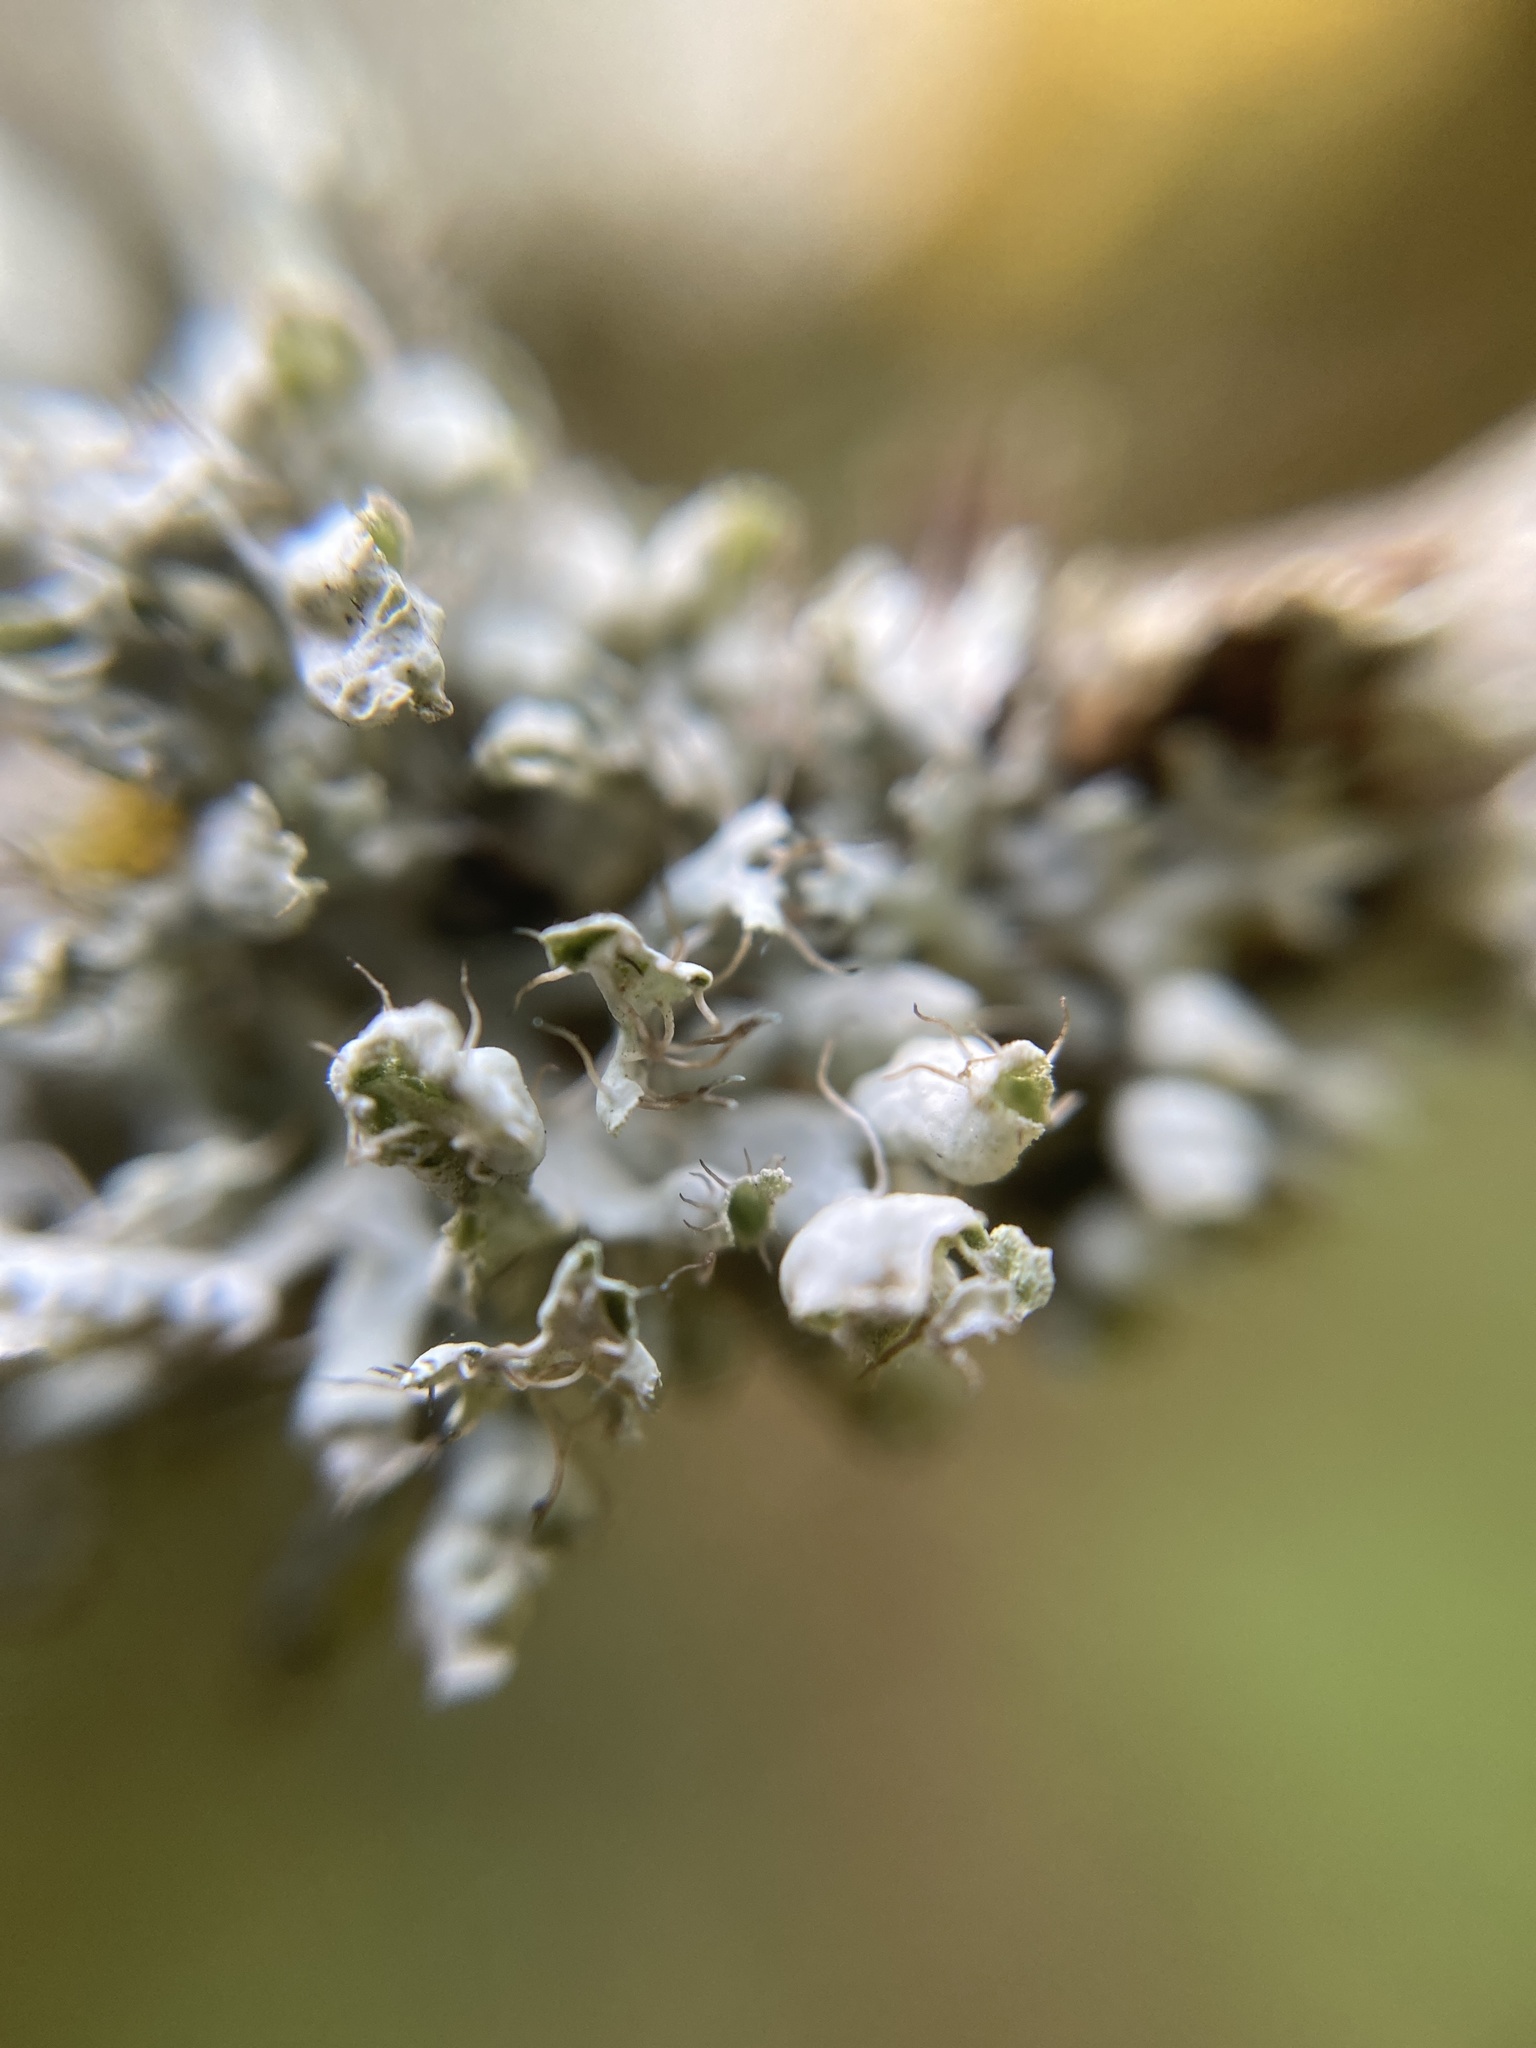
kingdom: Fungi
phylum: Ascomycota
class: Lecanoromycetes
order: Caliciales
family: Physciaceae
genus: Physcia
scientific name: Physcia adscendens
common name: Hooded rosette lichen
